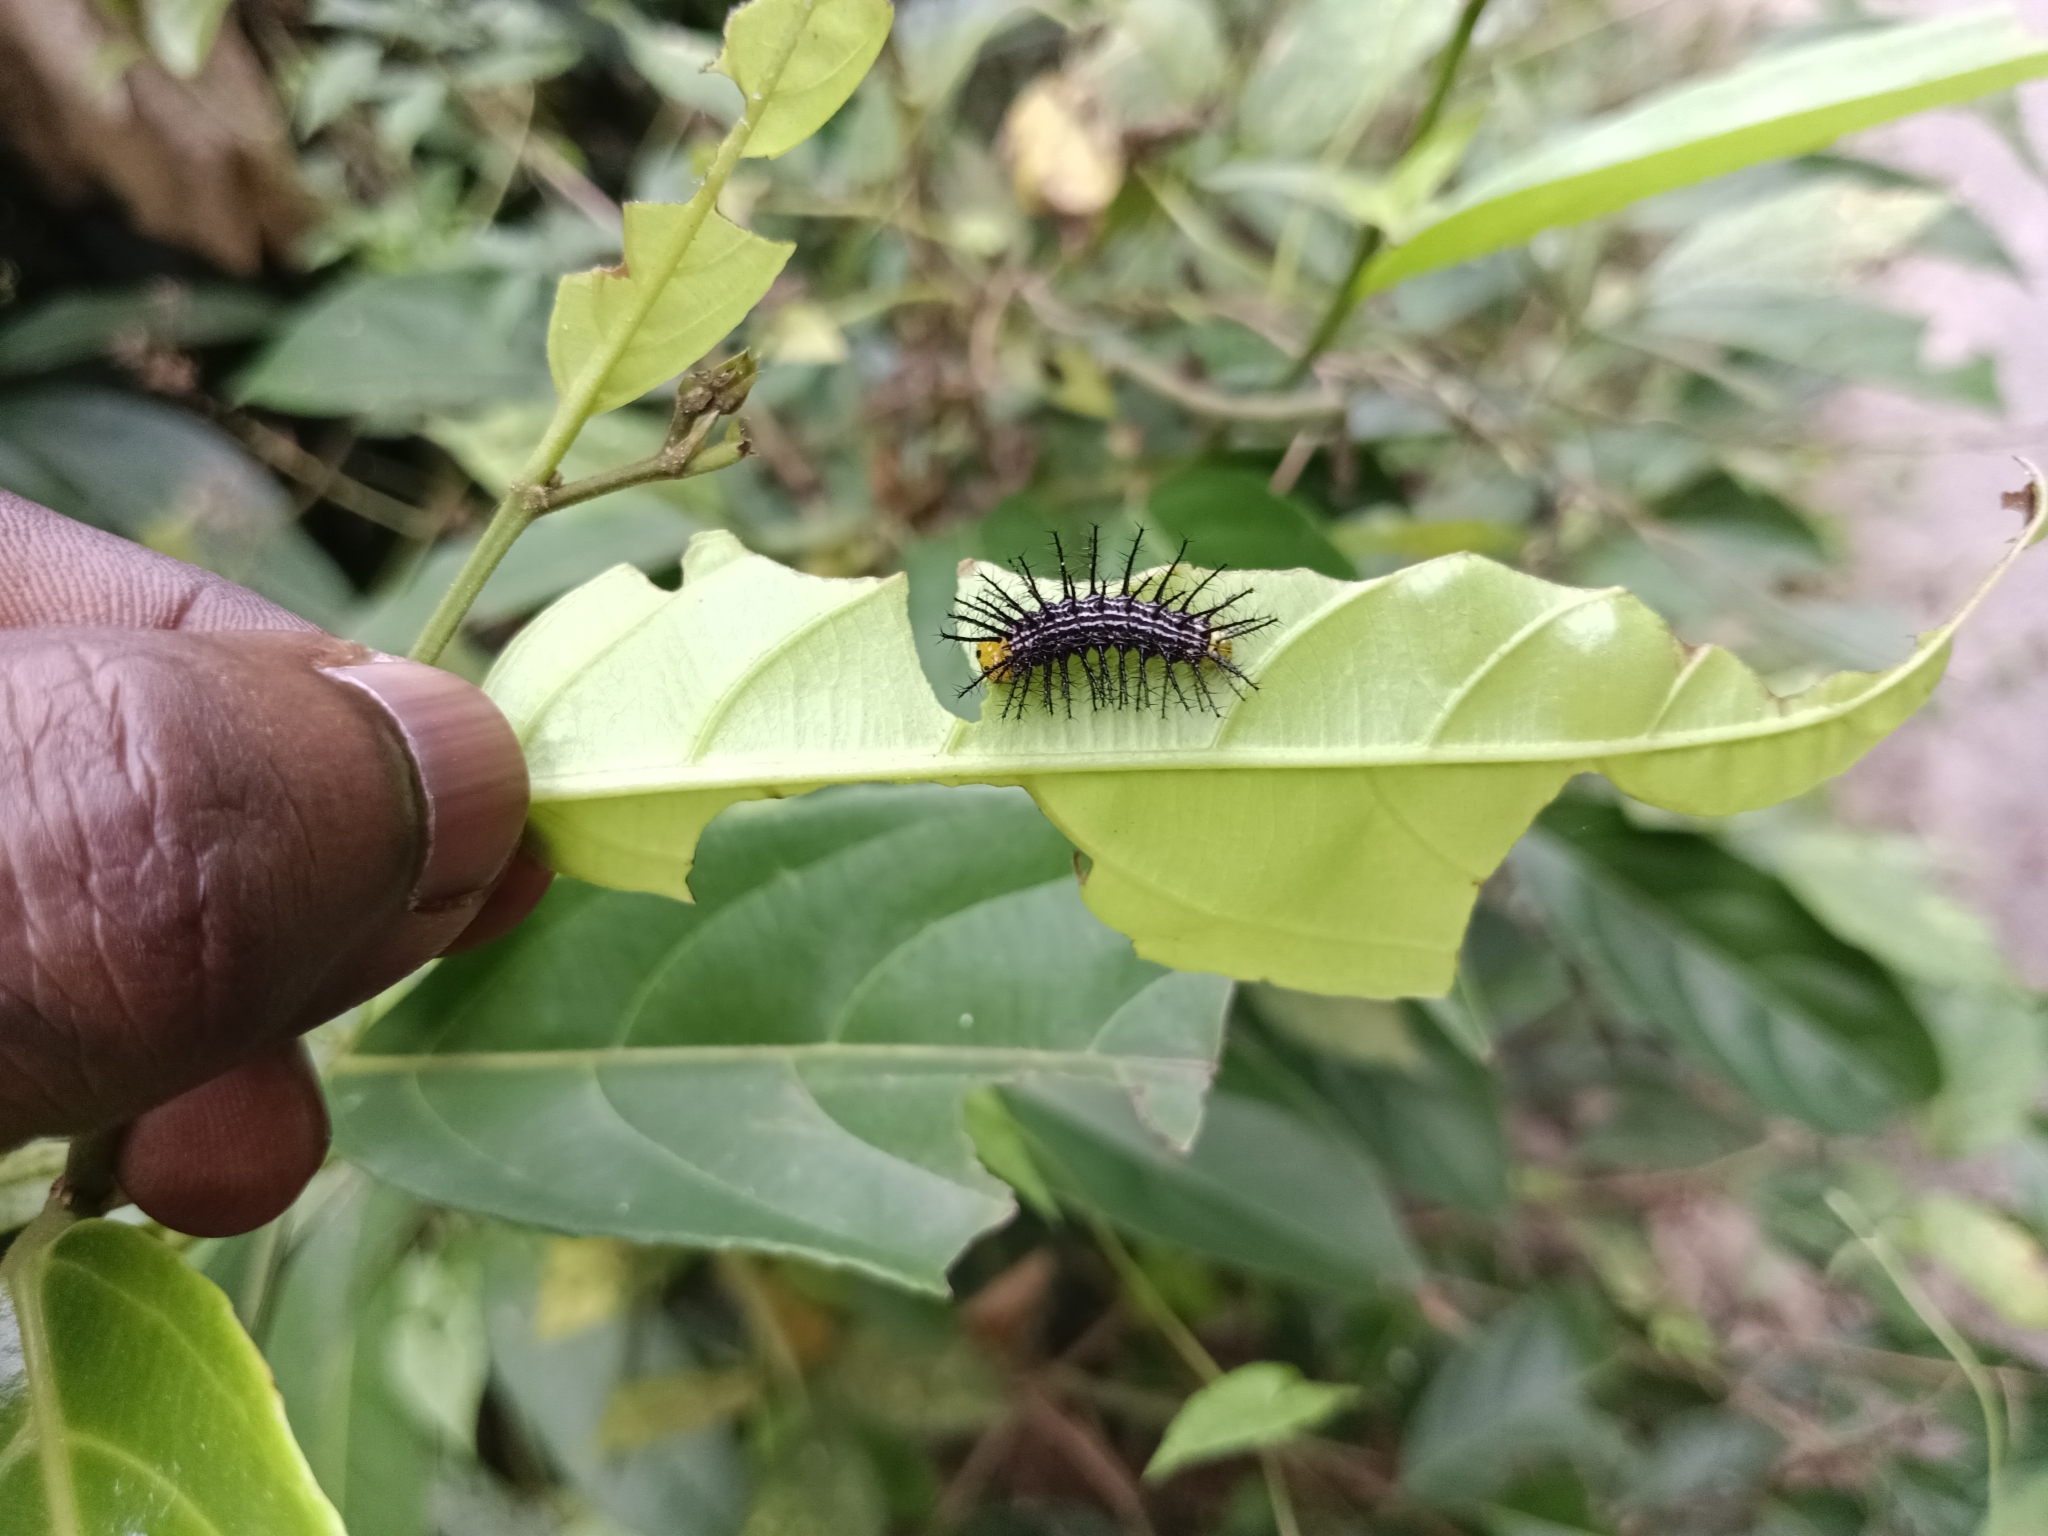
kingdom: Animalia
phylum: Arthropoda
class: Insecta
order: Lepidoptera
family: Nymphalidae
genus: Cirrochroa
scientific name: Cirrochroa thais
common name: Tamil yeoman
